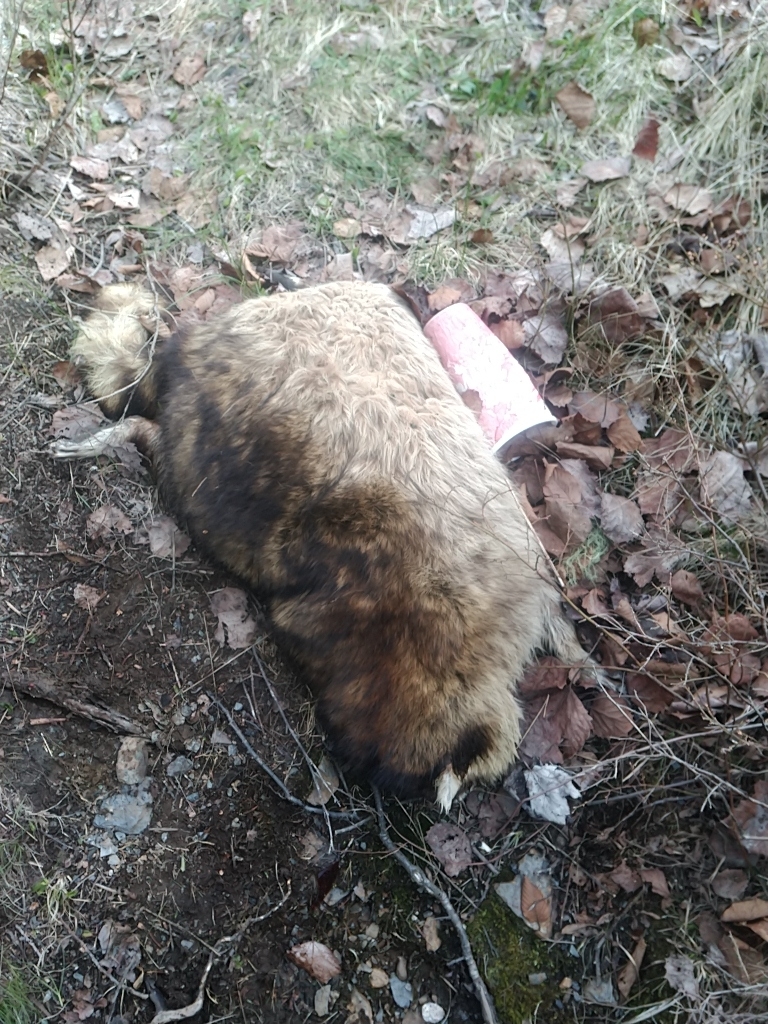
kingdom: Animalia
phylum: Chordata
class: Mammalia
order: Carnivora
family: Procyonidae
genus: Procyon
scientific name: Procyon lotor
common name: Raccoon
